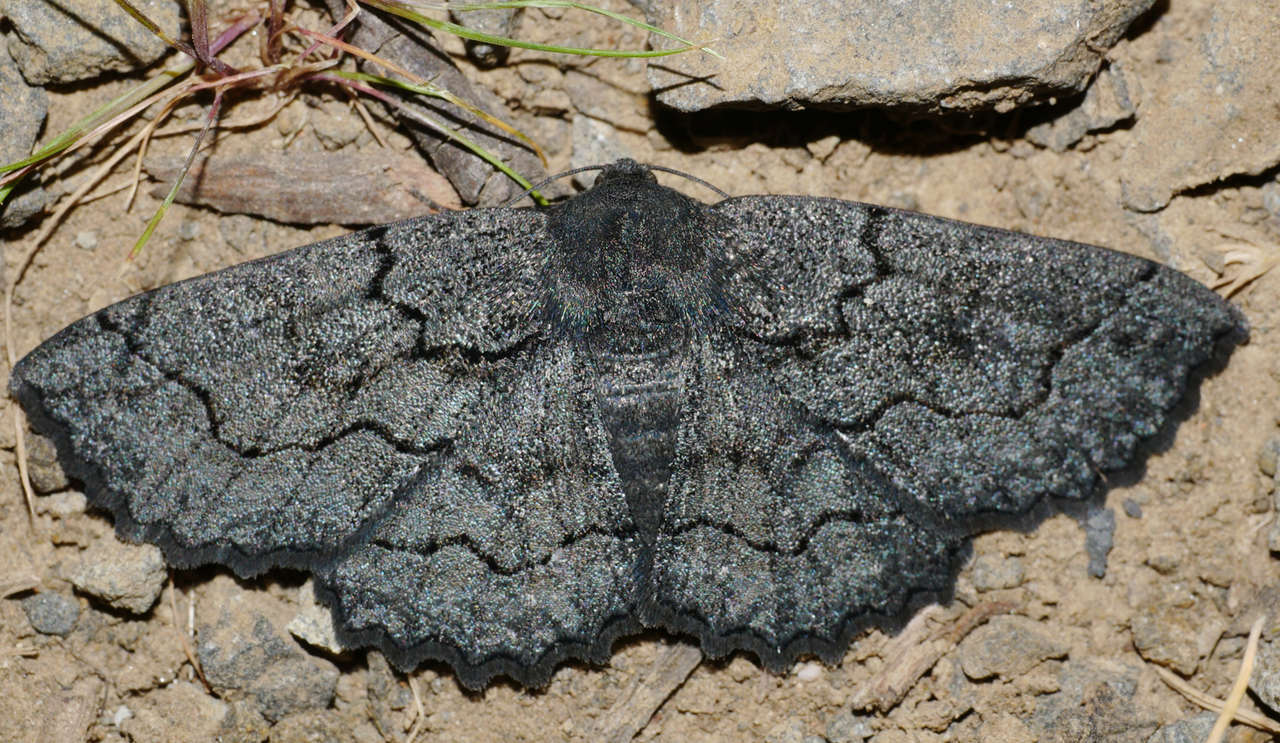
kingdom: Animalia
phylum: Arthropoda
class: Insecta
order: Lepidoptera
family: Geometridae
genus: Melanodes
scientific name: Melanodes anthracitaria
